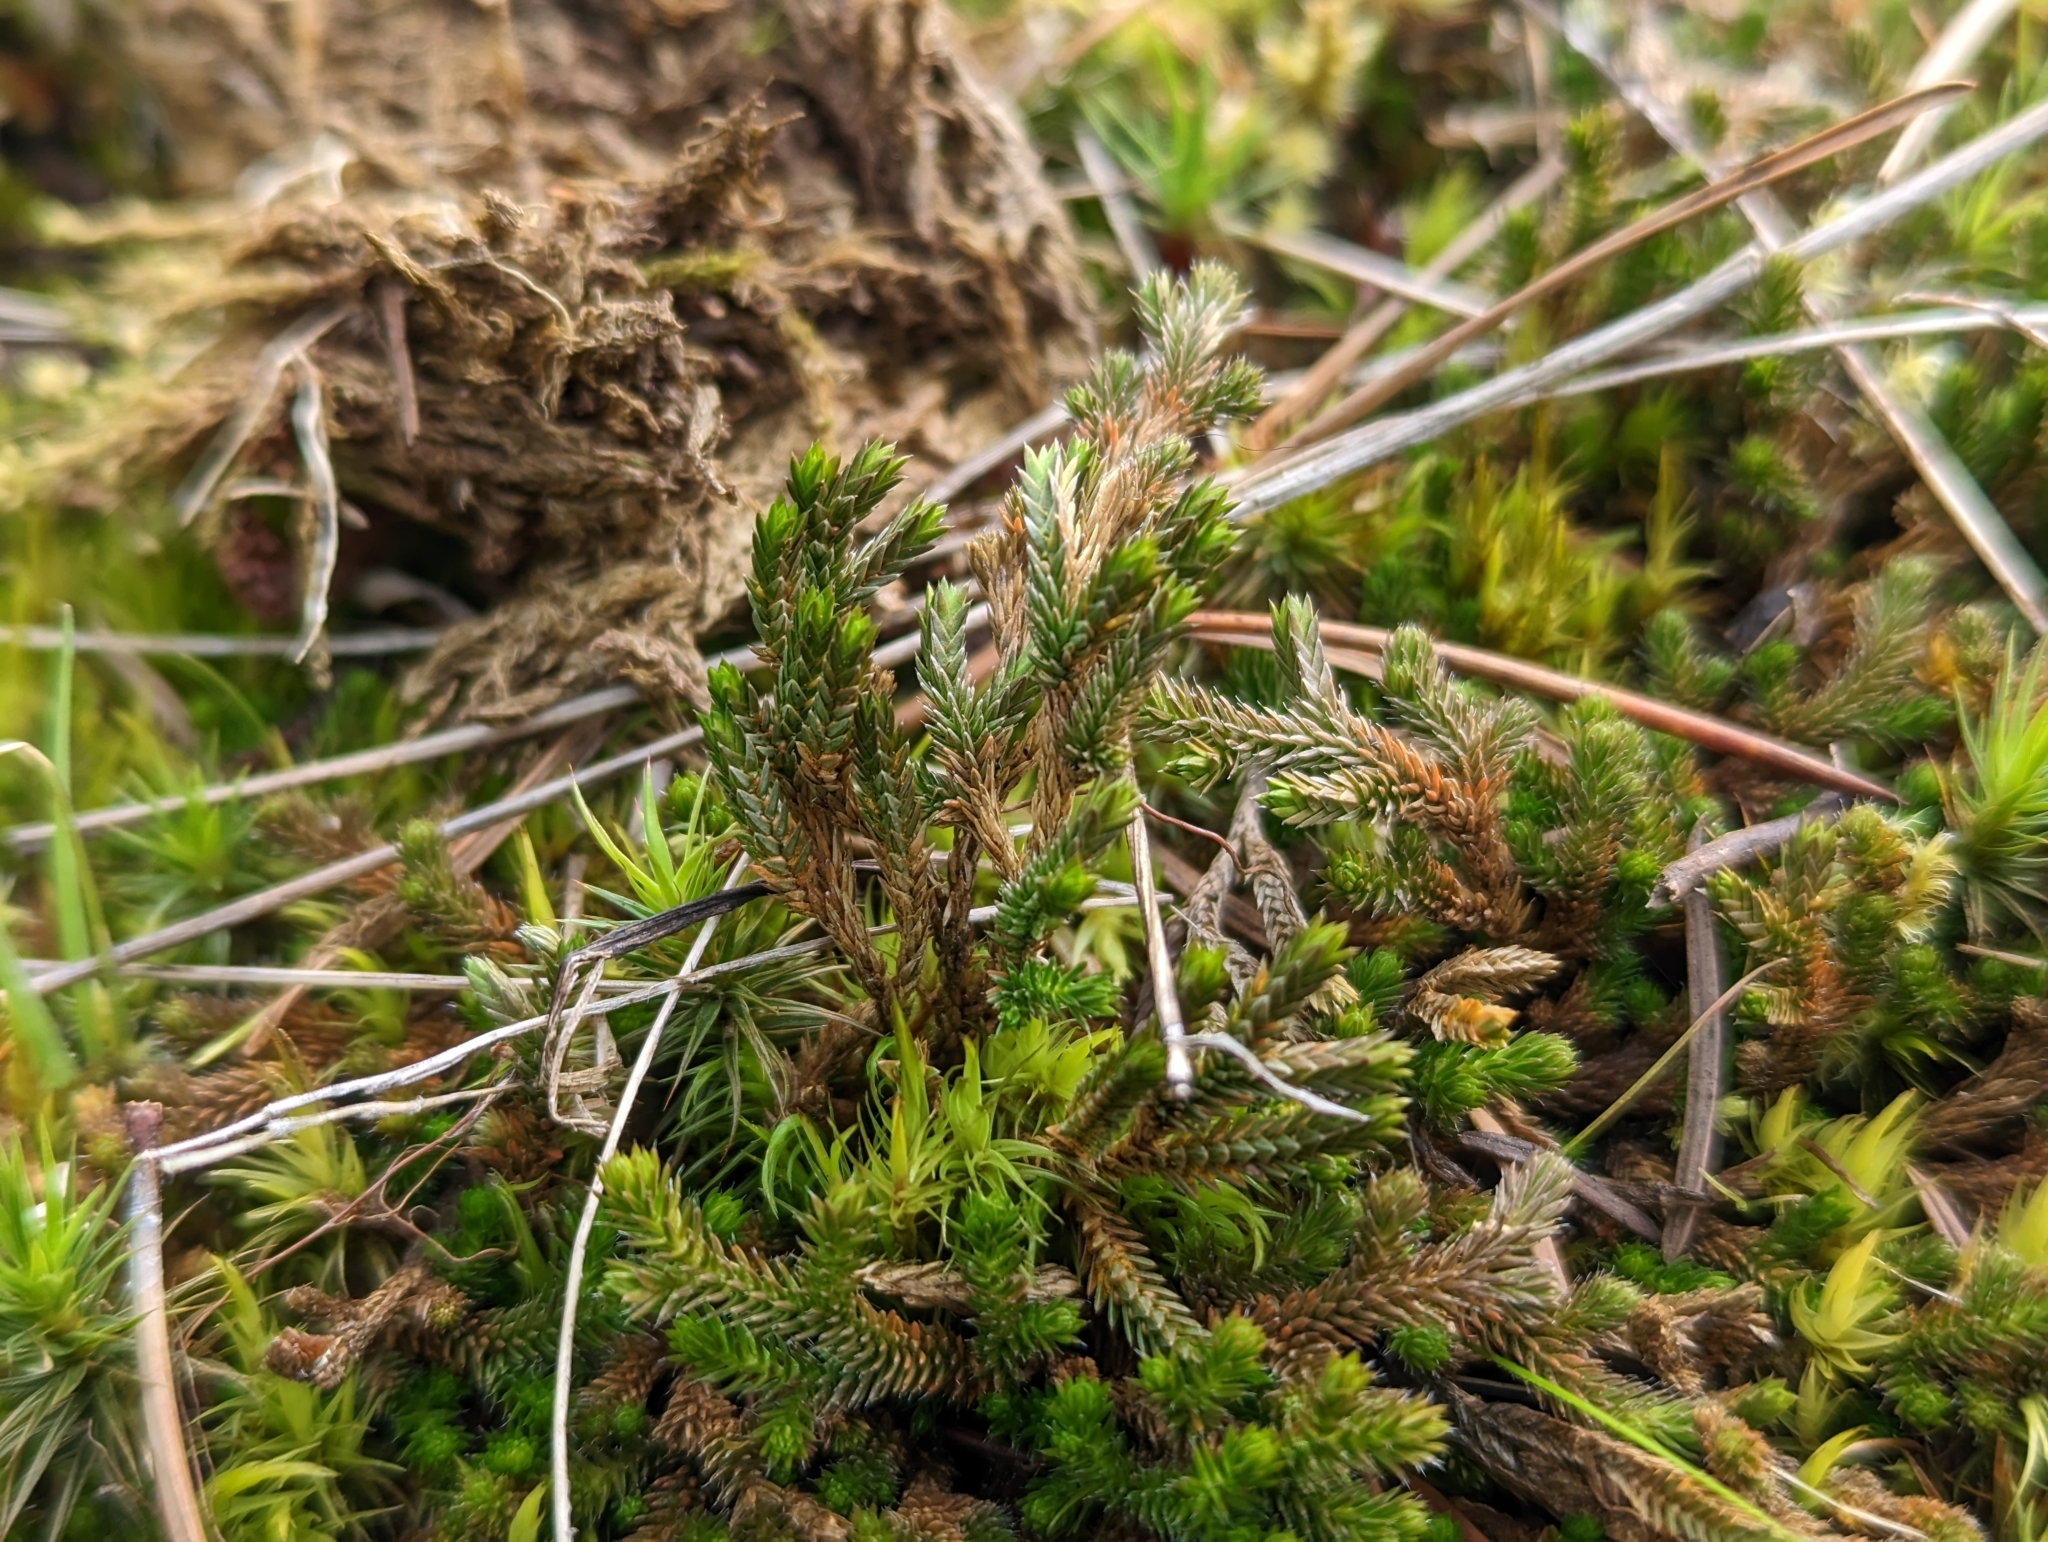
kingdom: Plantae
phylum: Tracheophyta
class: Lycopodiopsida
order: Selaginellales
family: Selaginellaceae
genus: Selaginella
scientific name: Selaginella wallacei
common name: Wallace's selaginella
